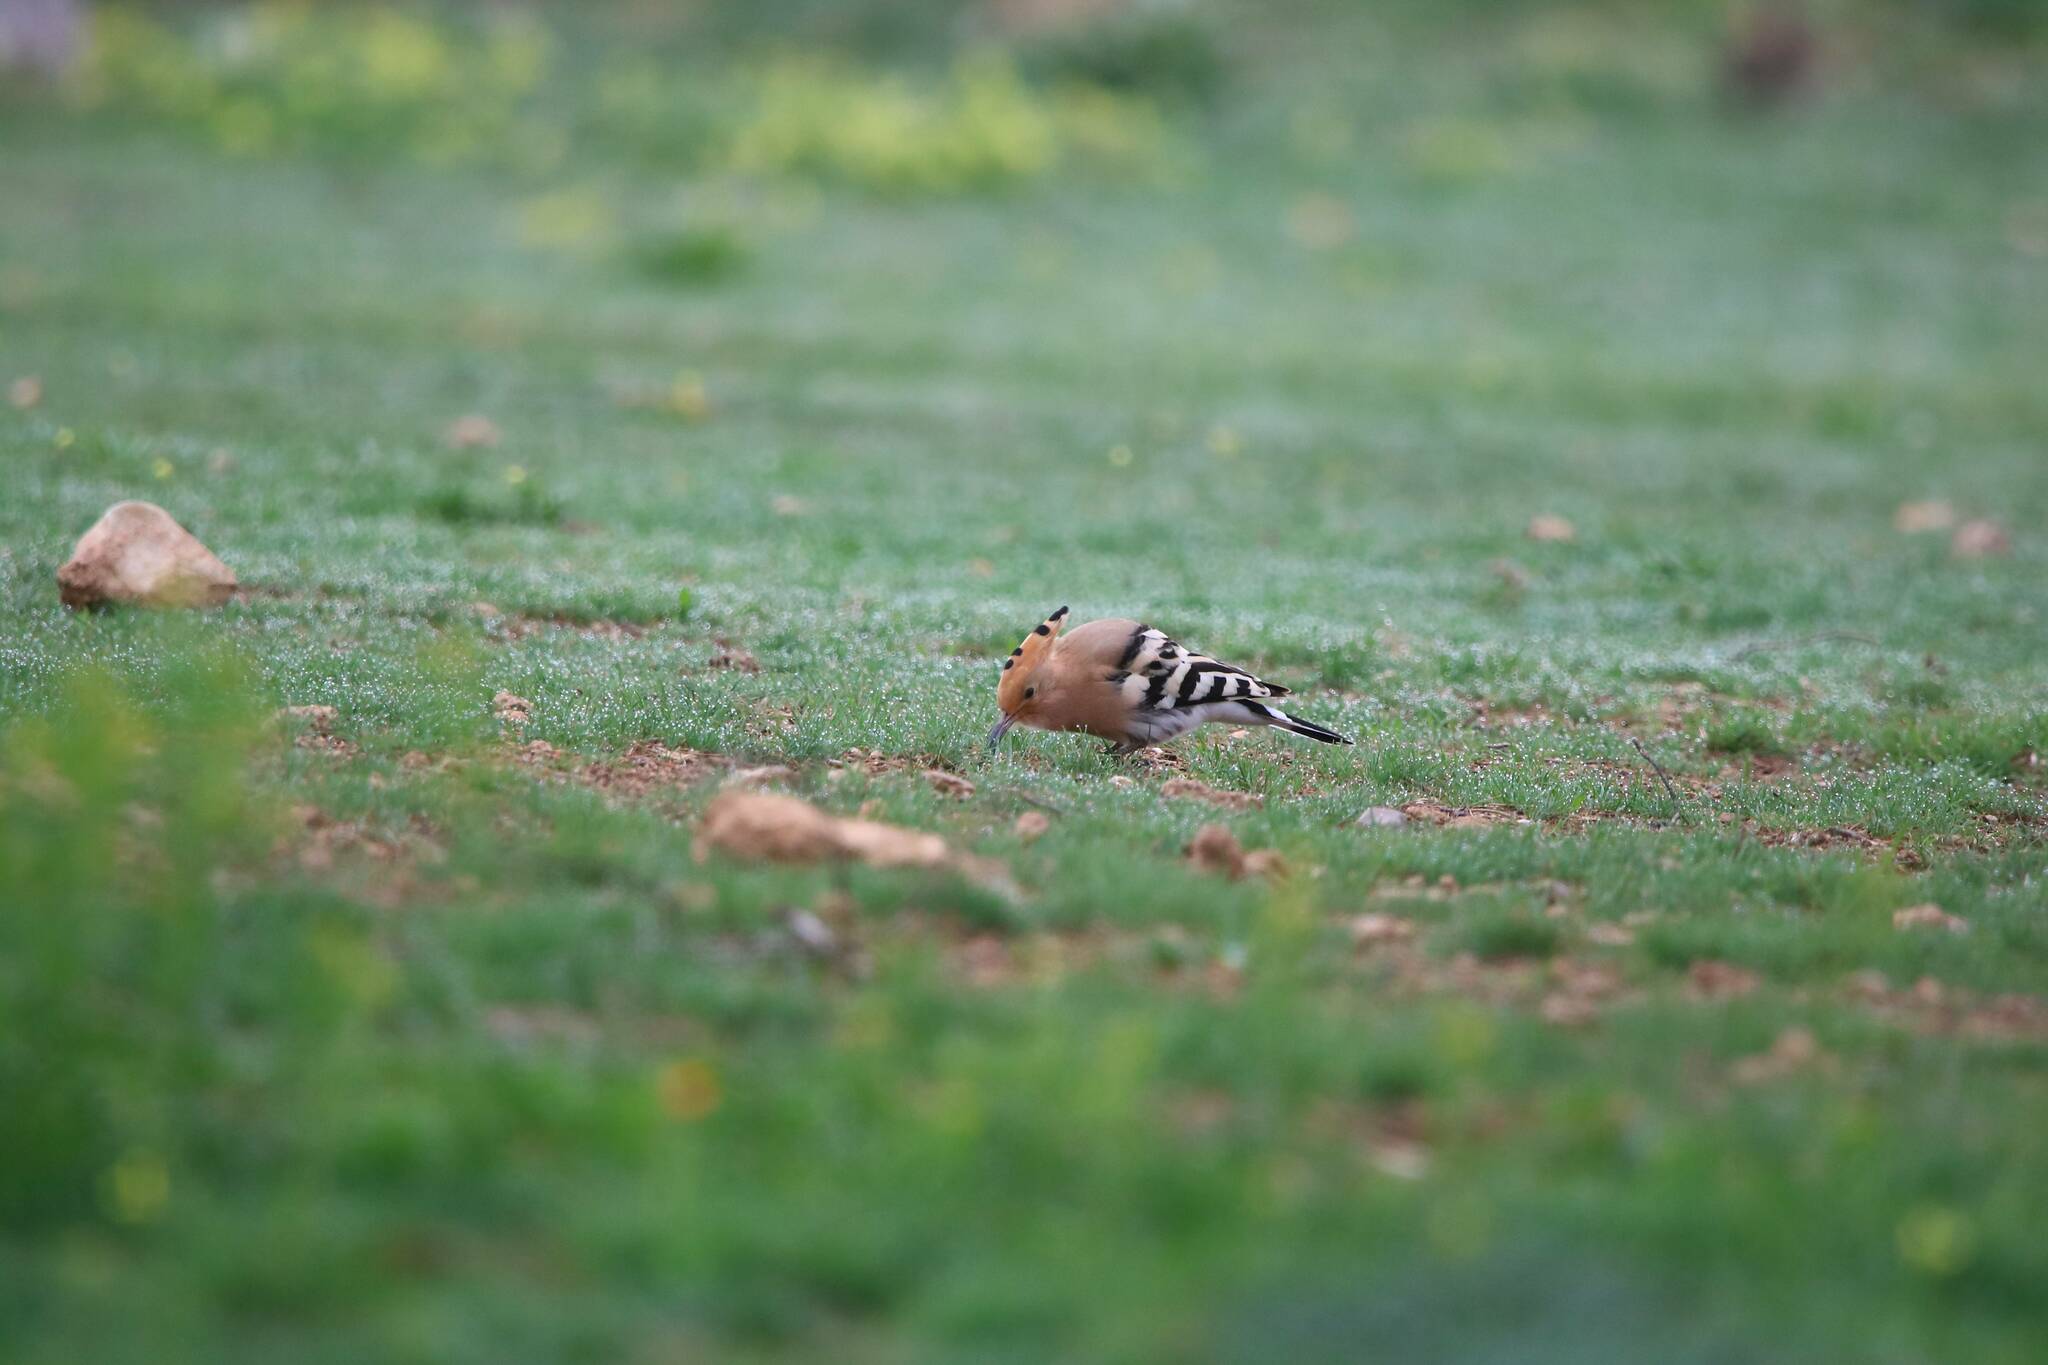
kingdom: Animalia
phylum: Chordata
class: Aves
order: Bucerotiformes
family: Upupidae
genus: Upupa
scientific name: Upupa epops
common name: Eurasian hoopoe
